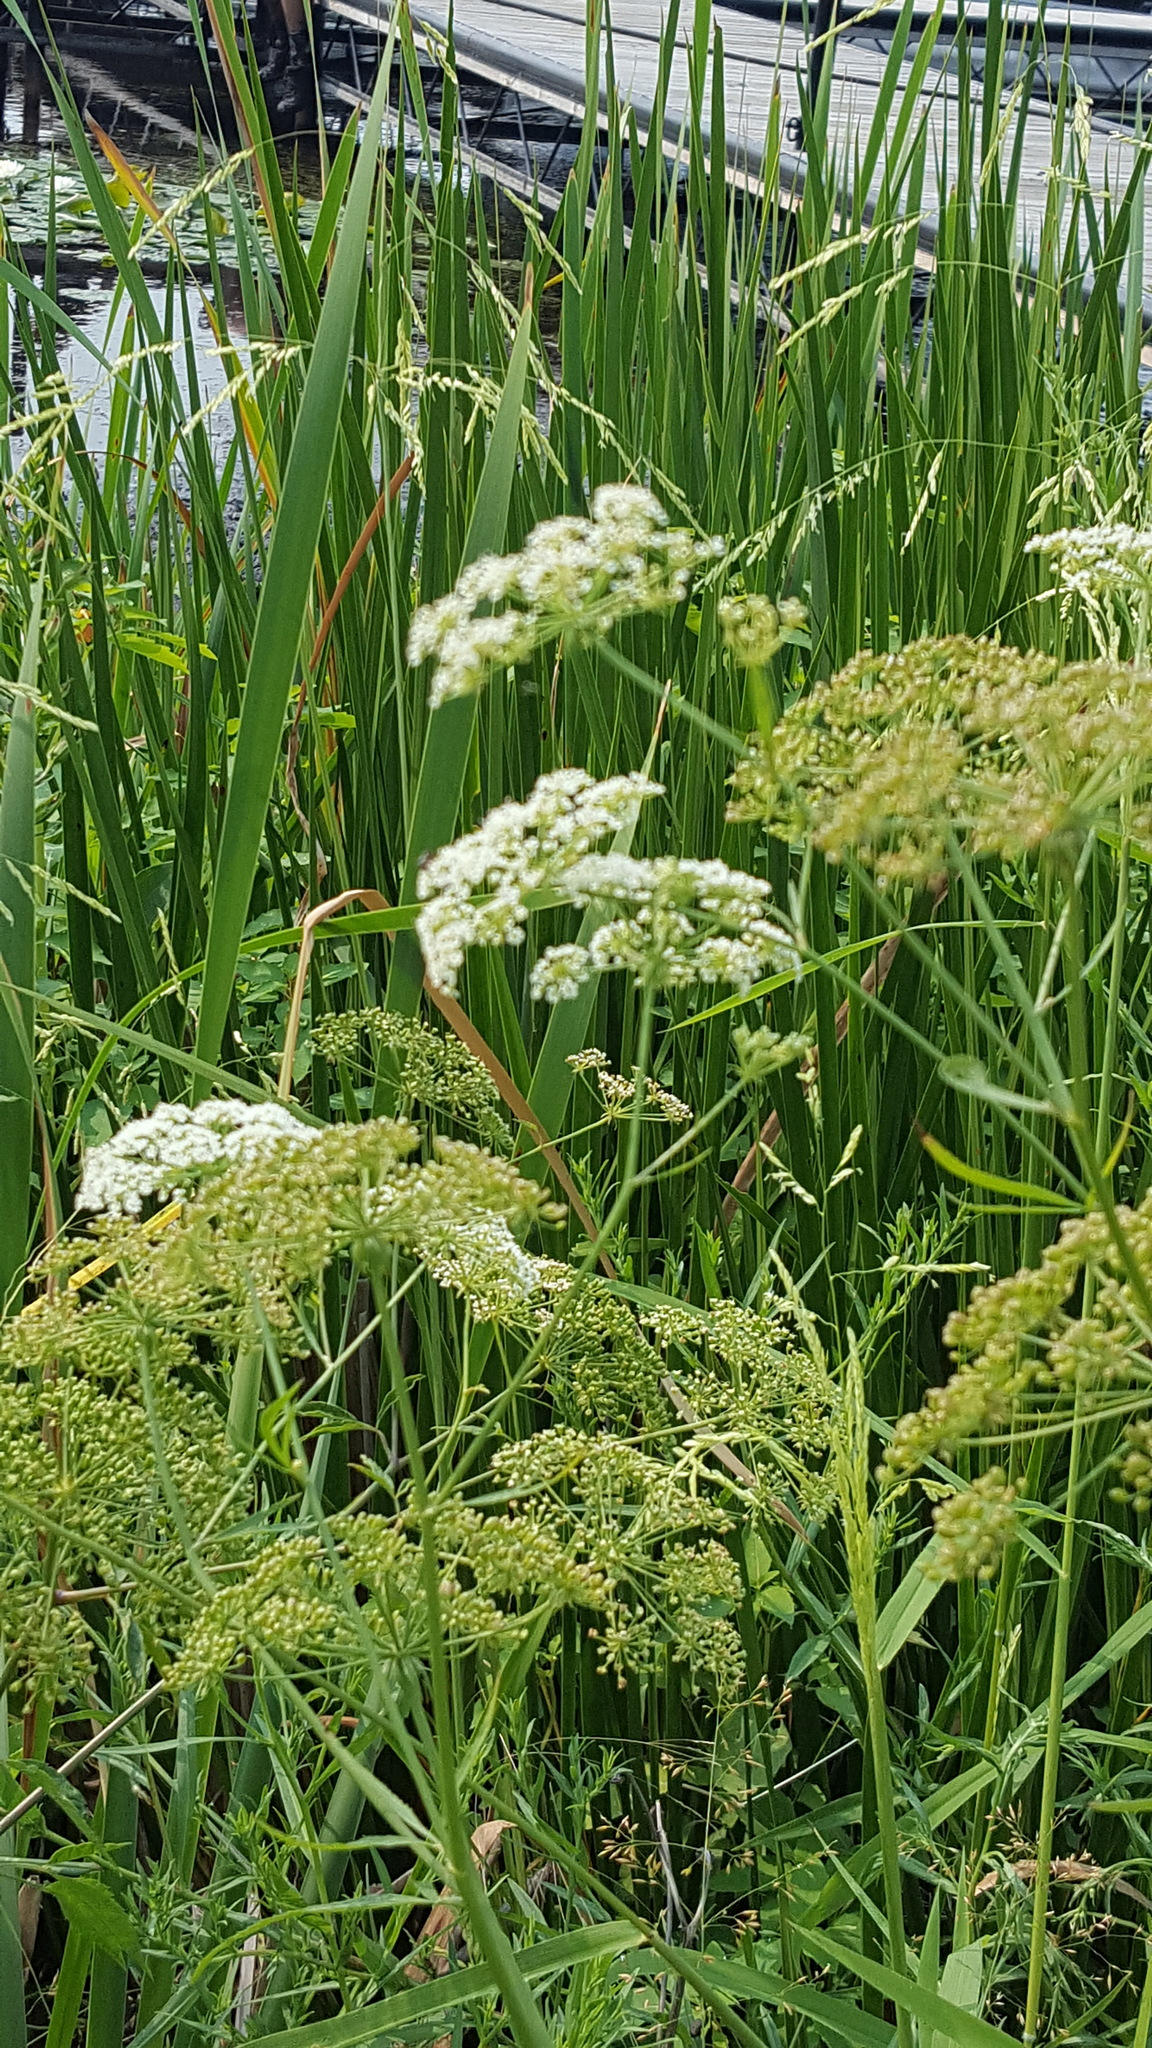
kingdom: Plantae
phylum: Tracheophyta
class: Magnoliopsida
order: Apiales
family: Apiaceae
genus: Sium
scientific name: Sium suave
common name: Hemlock water-parsnip
